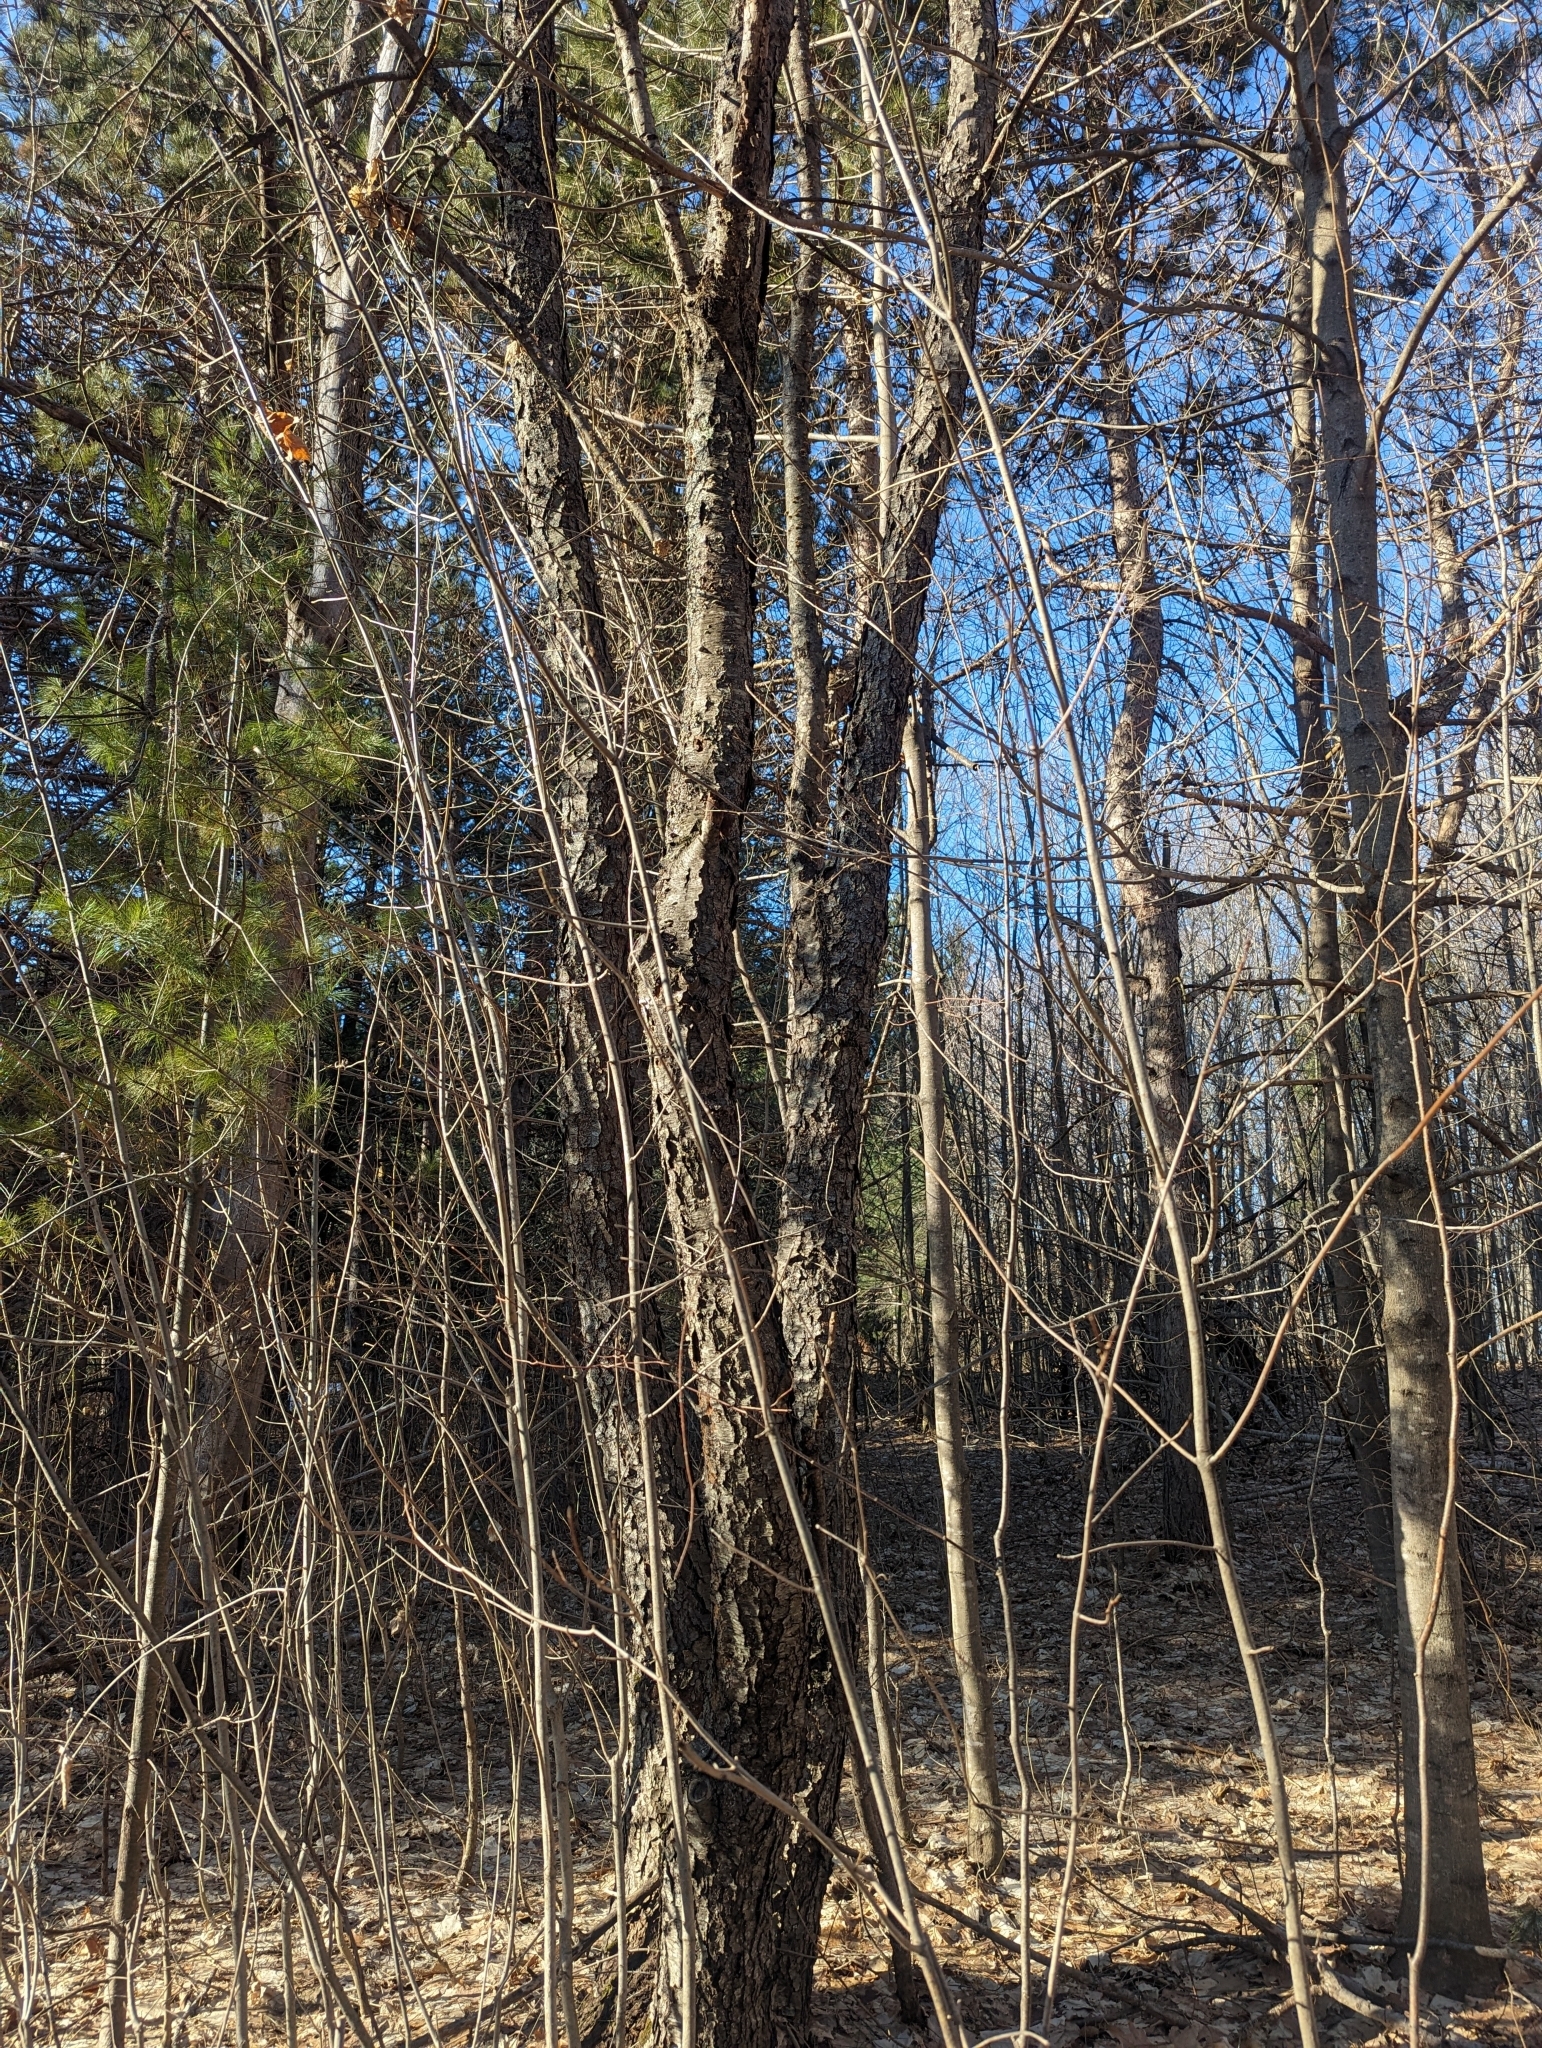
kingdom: Plantae
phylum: Tracheophyta
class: Magnoliopsida
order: Rosales
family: Rosaceae
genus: Prunus
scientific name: Prunus serotina
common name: Black cherry
